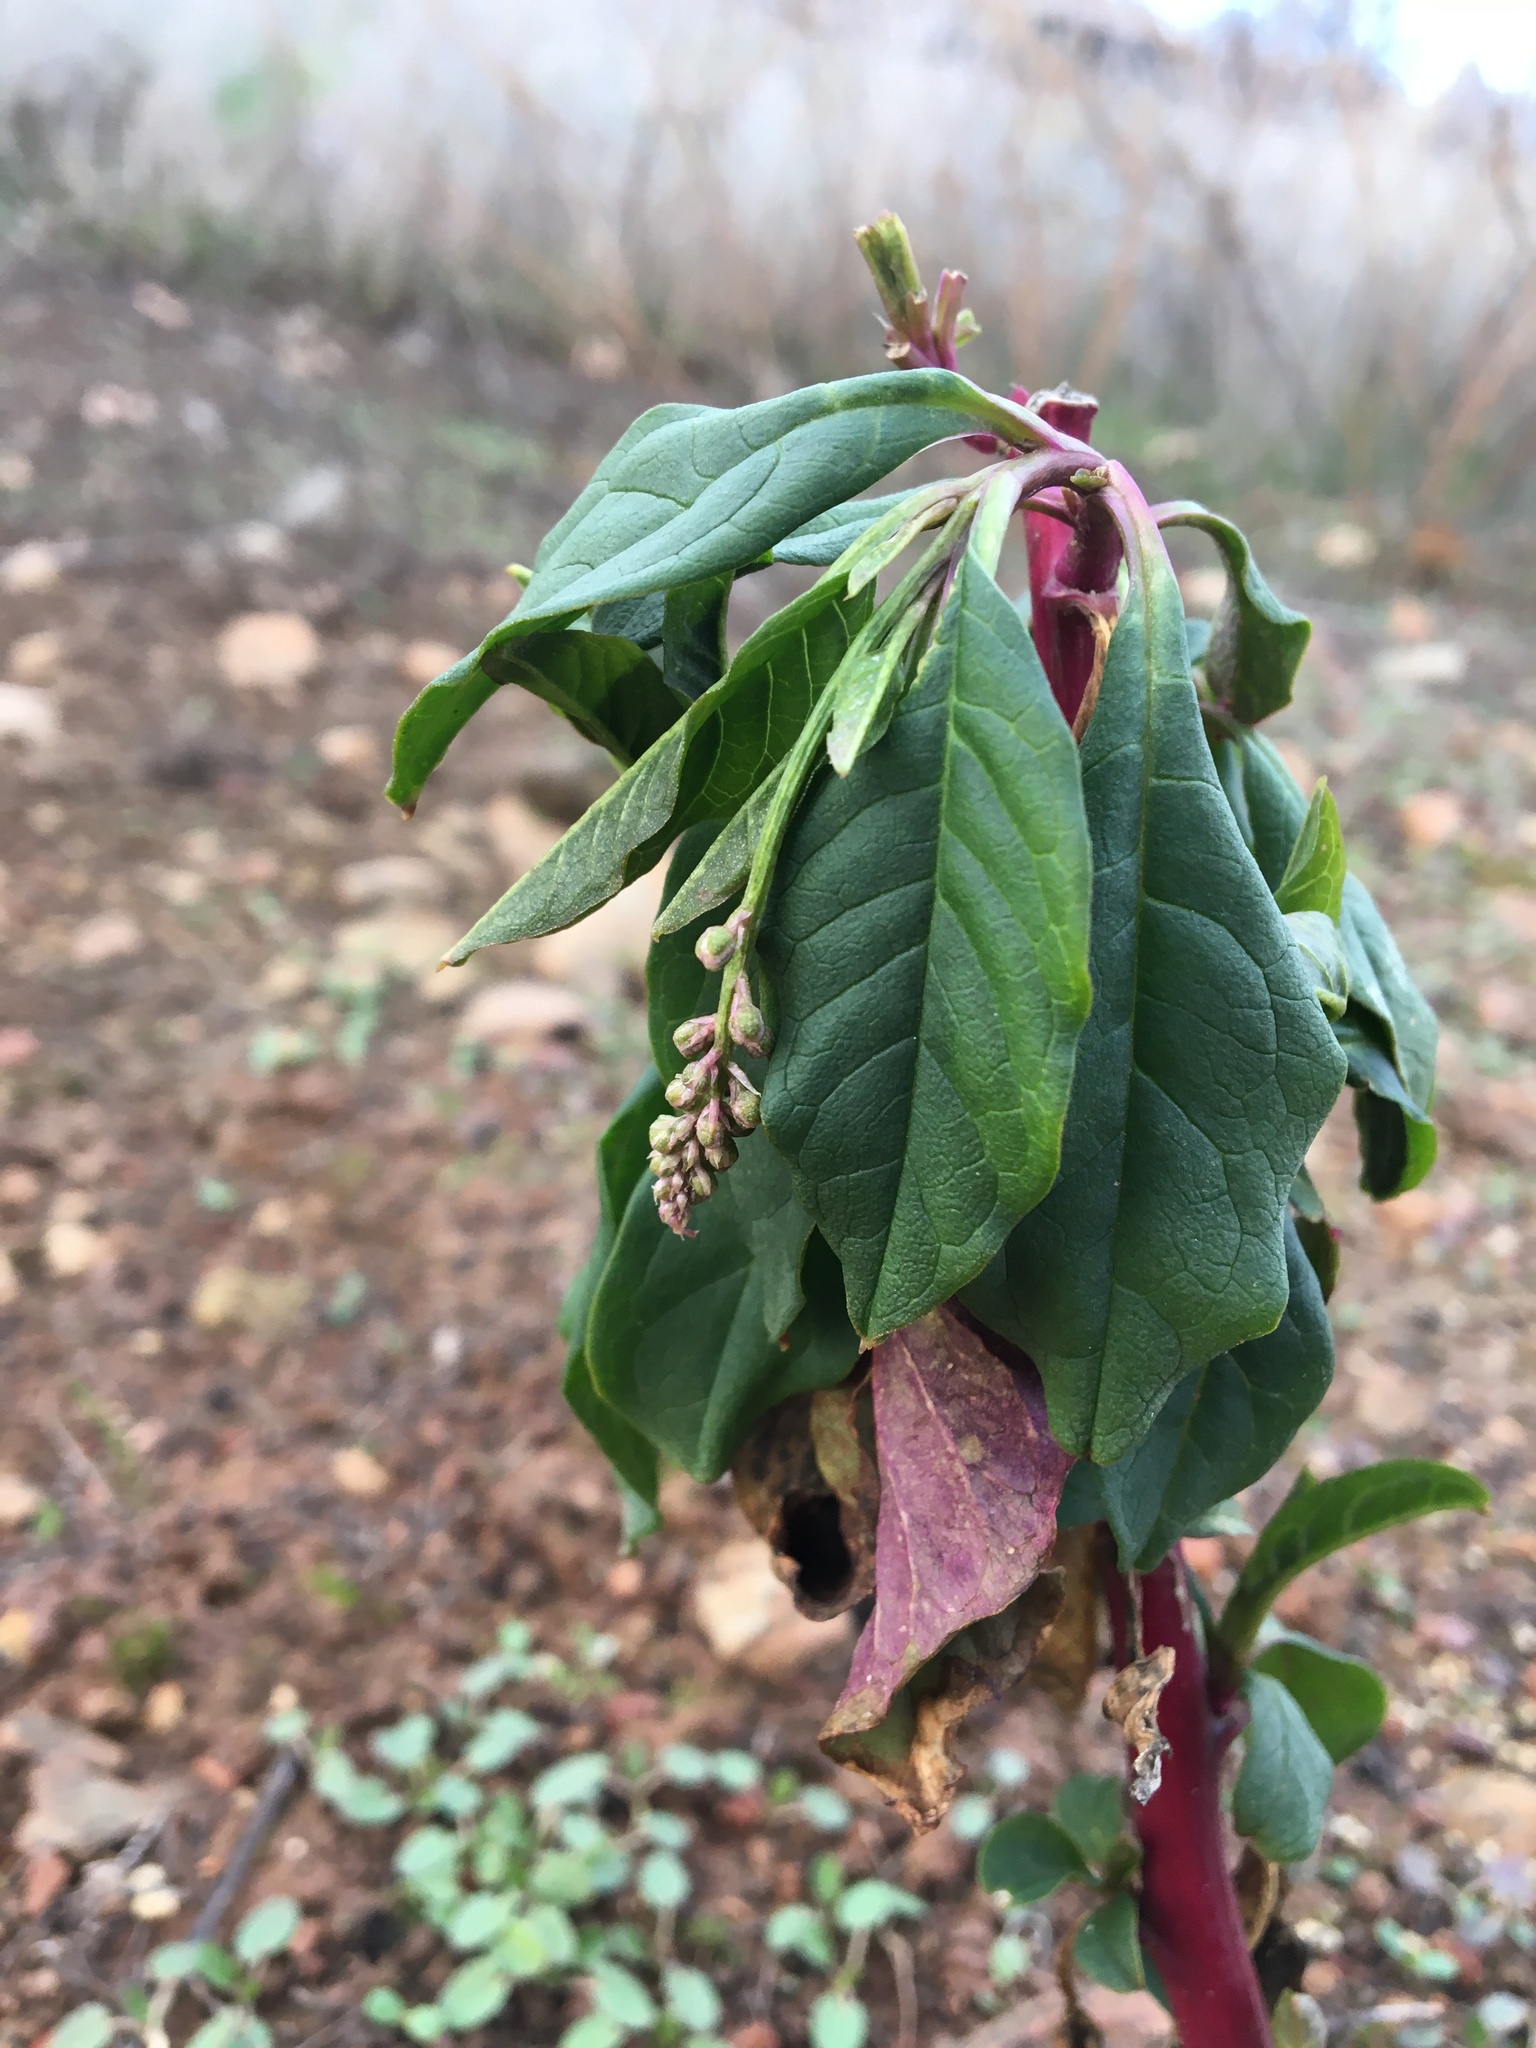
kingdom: Plantae
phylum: Tracheophyta
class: Magnoliopsida
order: Caryophyllales
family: Phytolaccaceae
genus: Phytolacca
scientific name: Phytolacca americana
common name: American pokeweed
